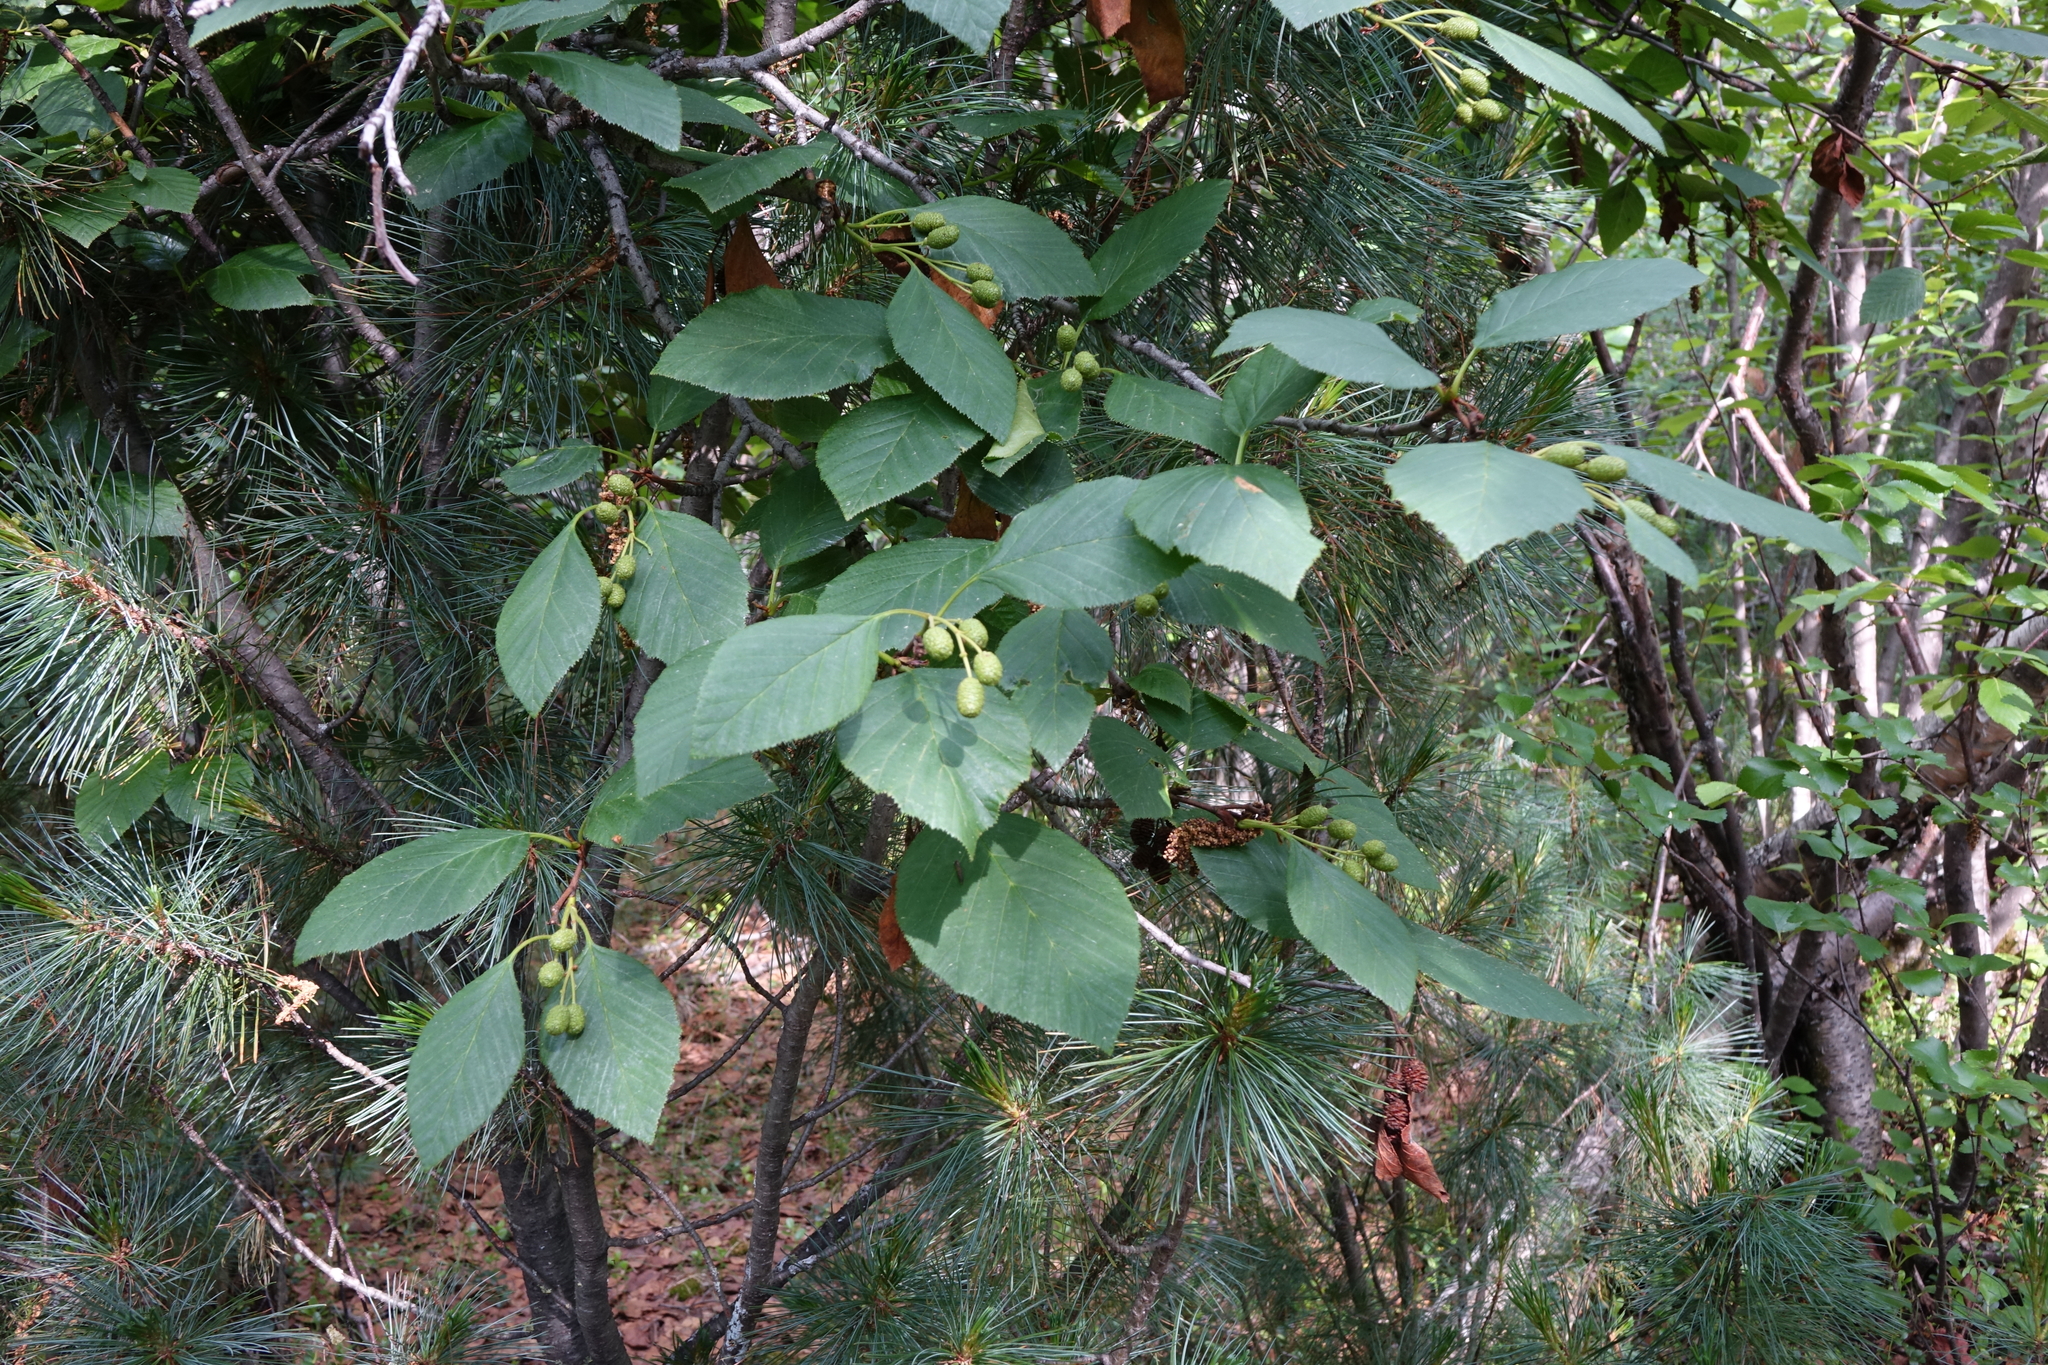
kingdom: Plantae
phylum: Tracheophyta
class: Magnoliopsida
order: Fagales
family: Betulaceae
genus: Alnus
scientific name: Alnus alnobetula
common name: Green alder
